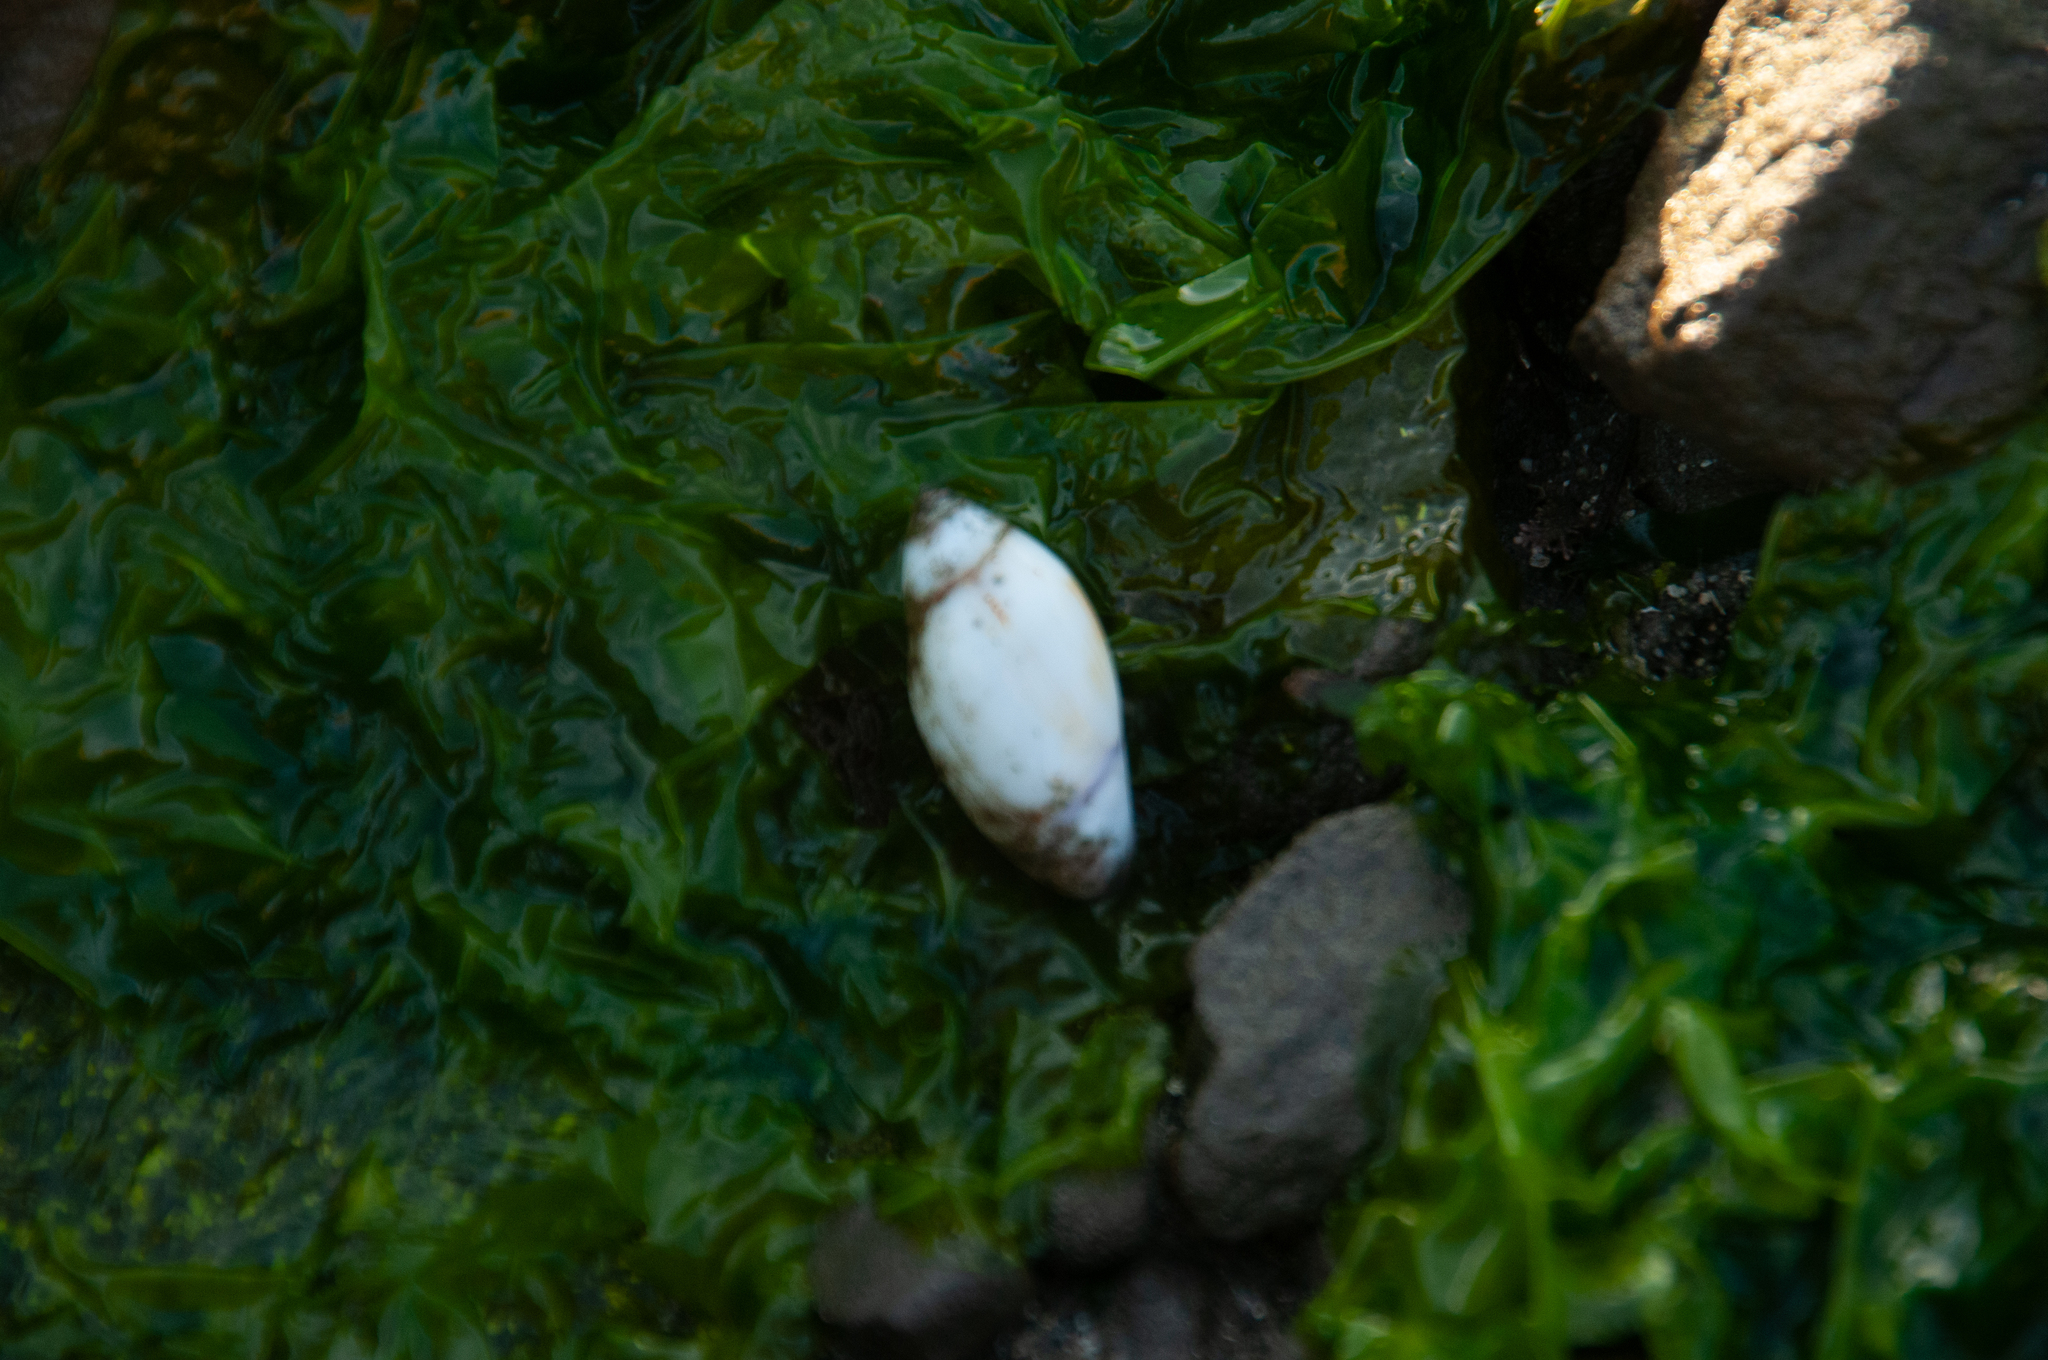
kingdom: Animalia
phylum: Mollusca
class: Gastropoda
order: Neogastropoda
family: Olividae
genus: Callianax
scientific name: Callianax biplicata
